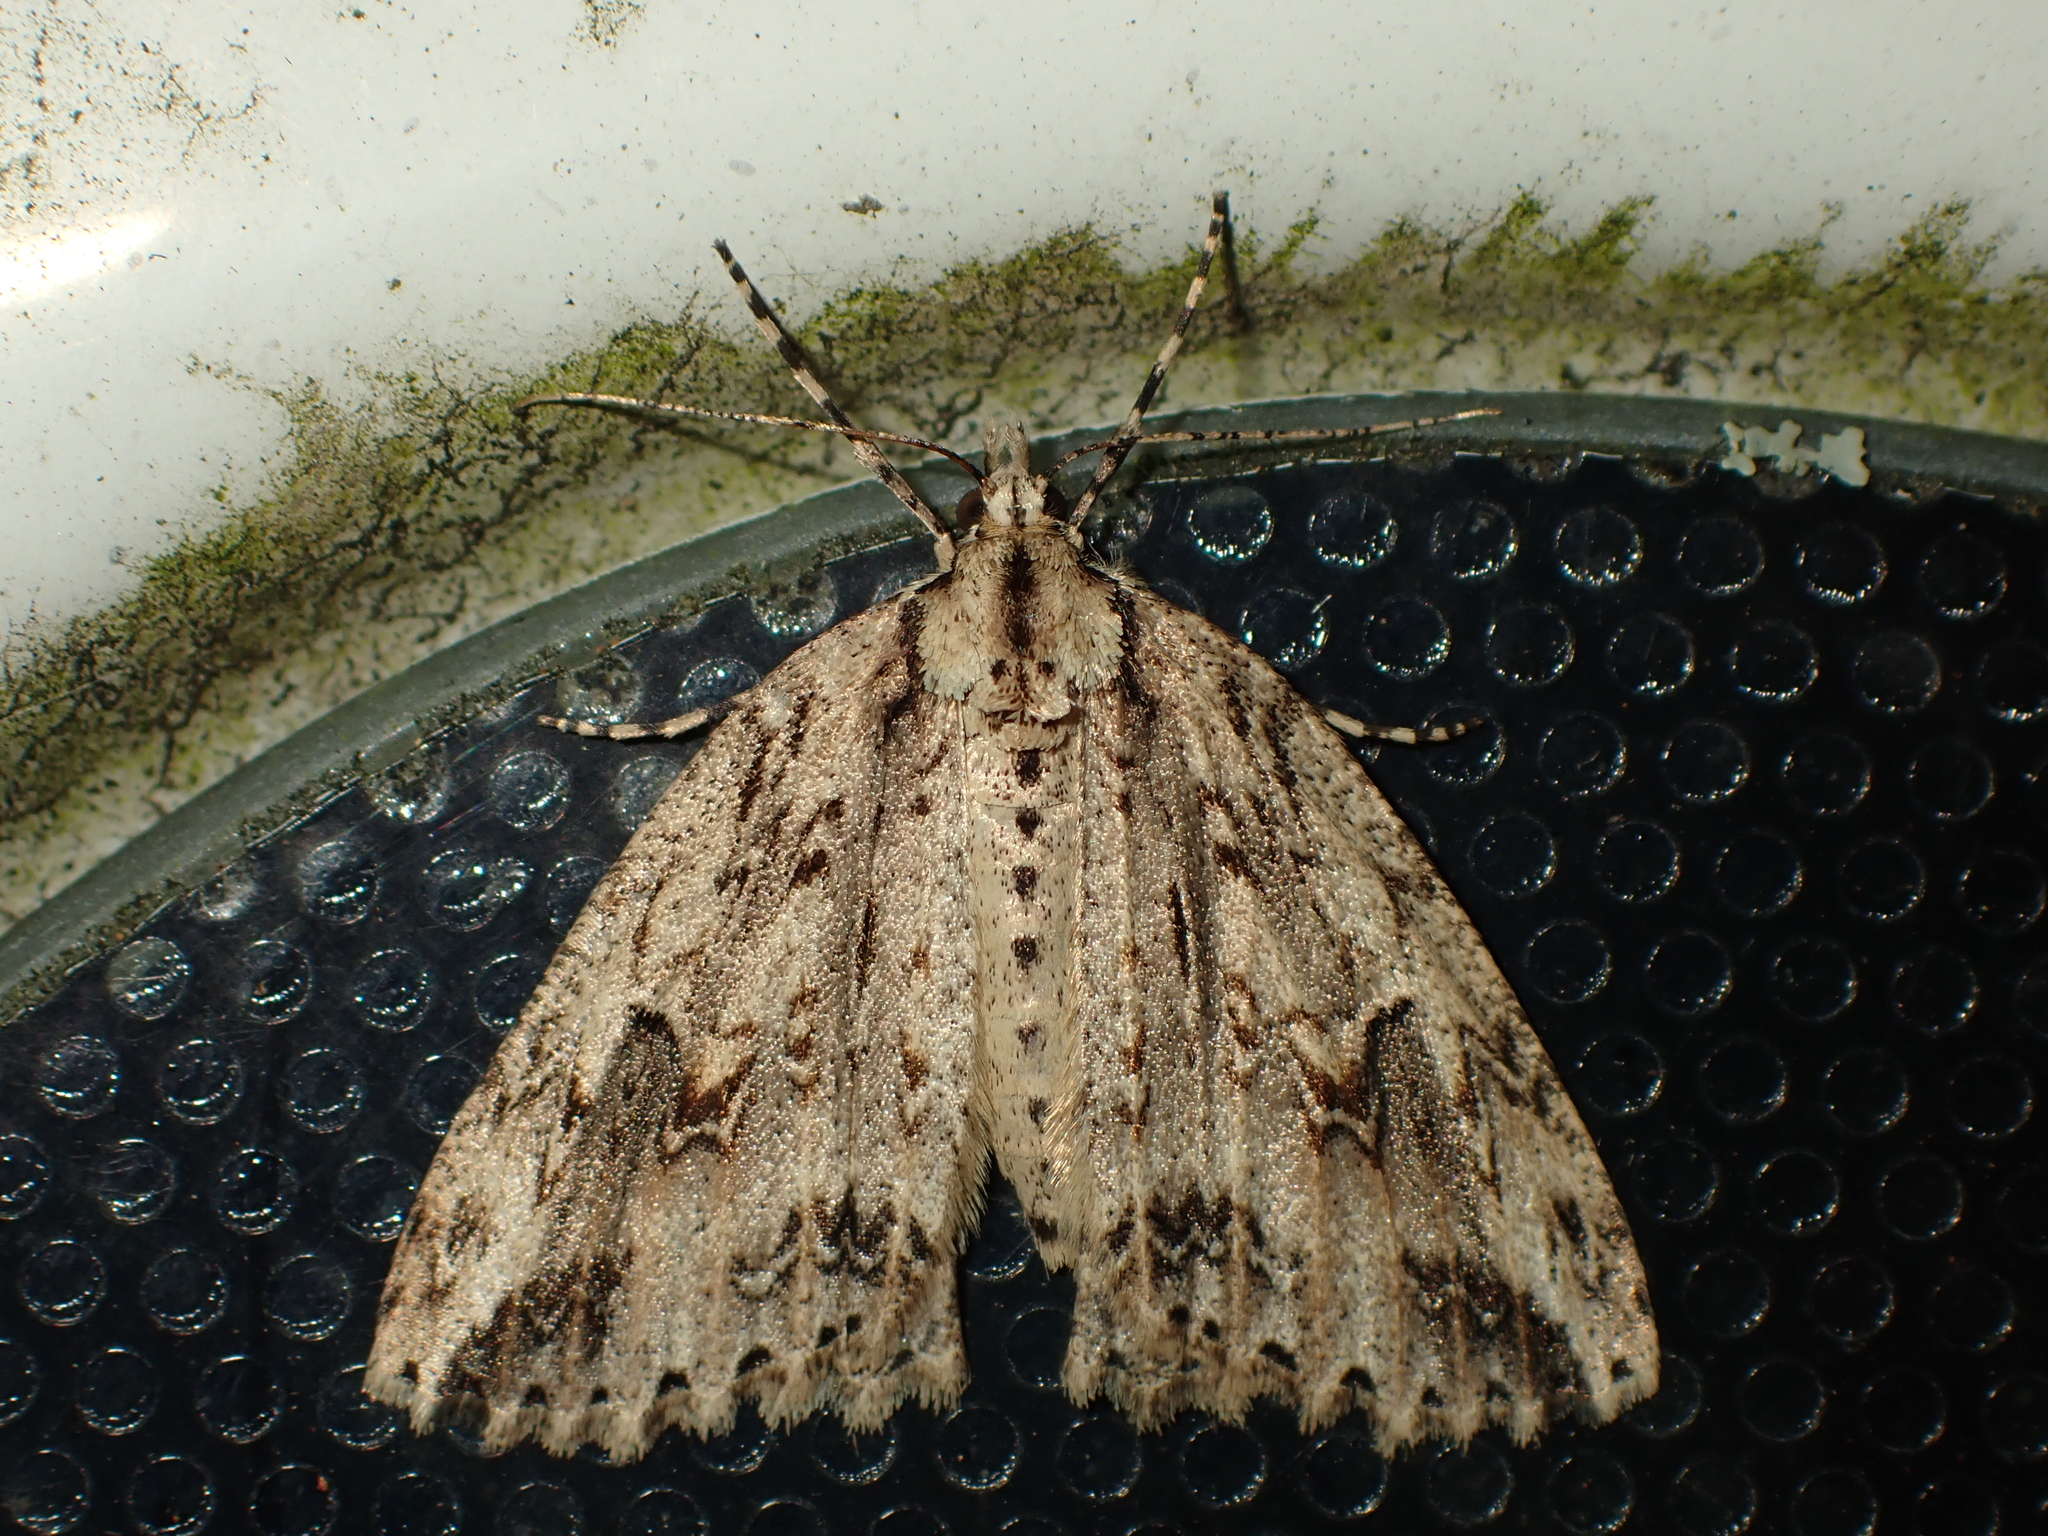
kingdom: Animalia
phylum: Arthropoda
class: Insecta
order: Lepidoptera
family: Geometridae
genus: Pseudocoremia
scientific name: Pseudocoremia rudisata
